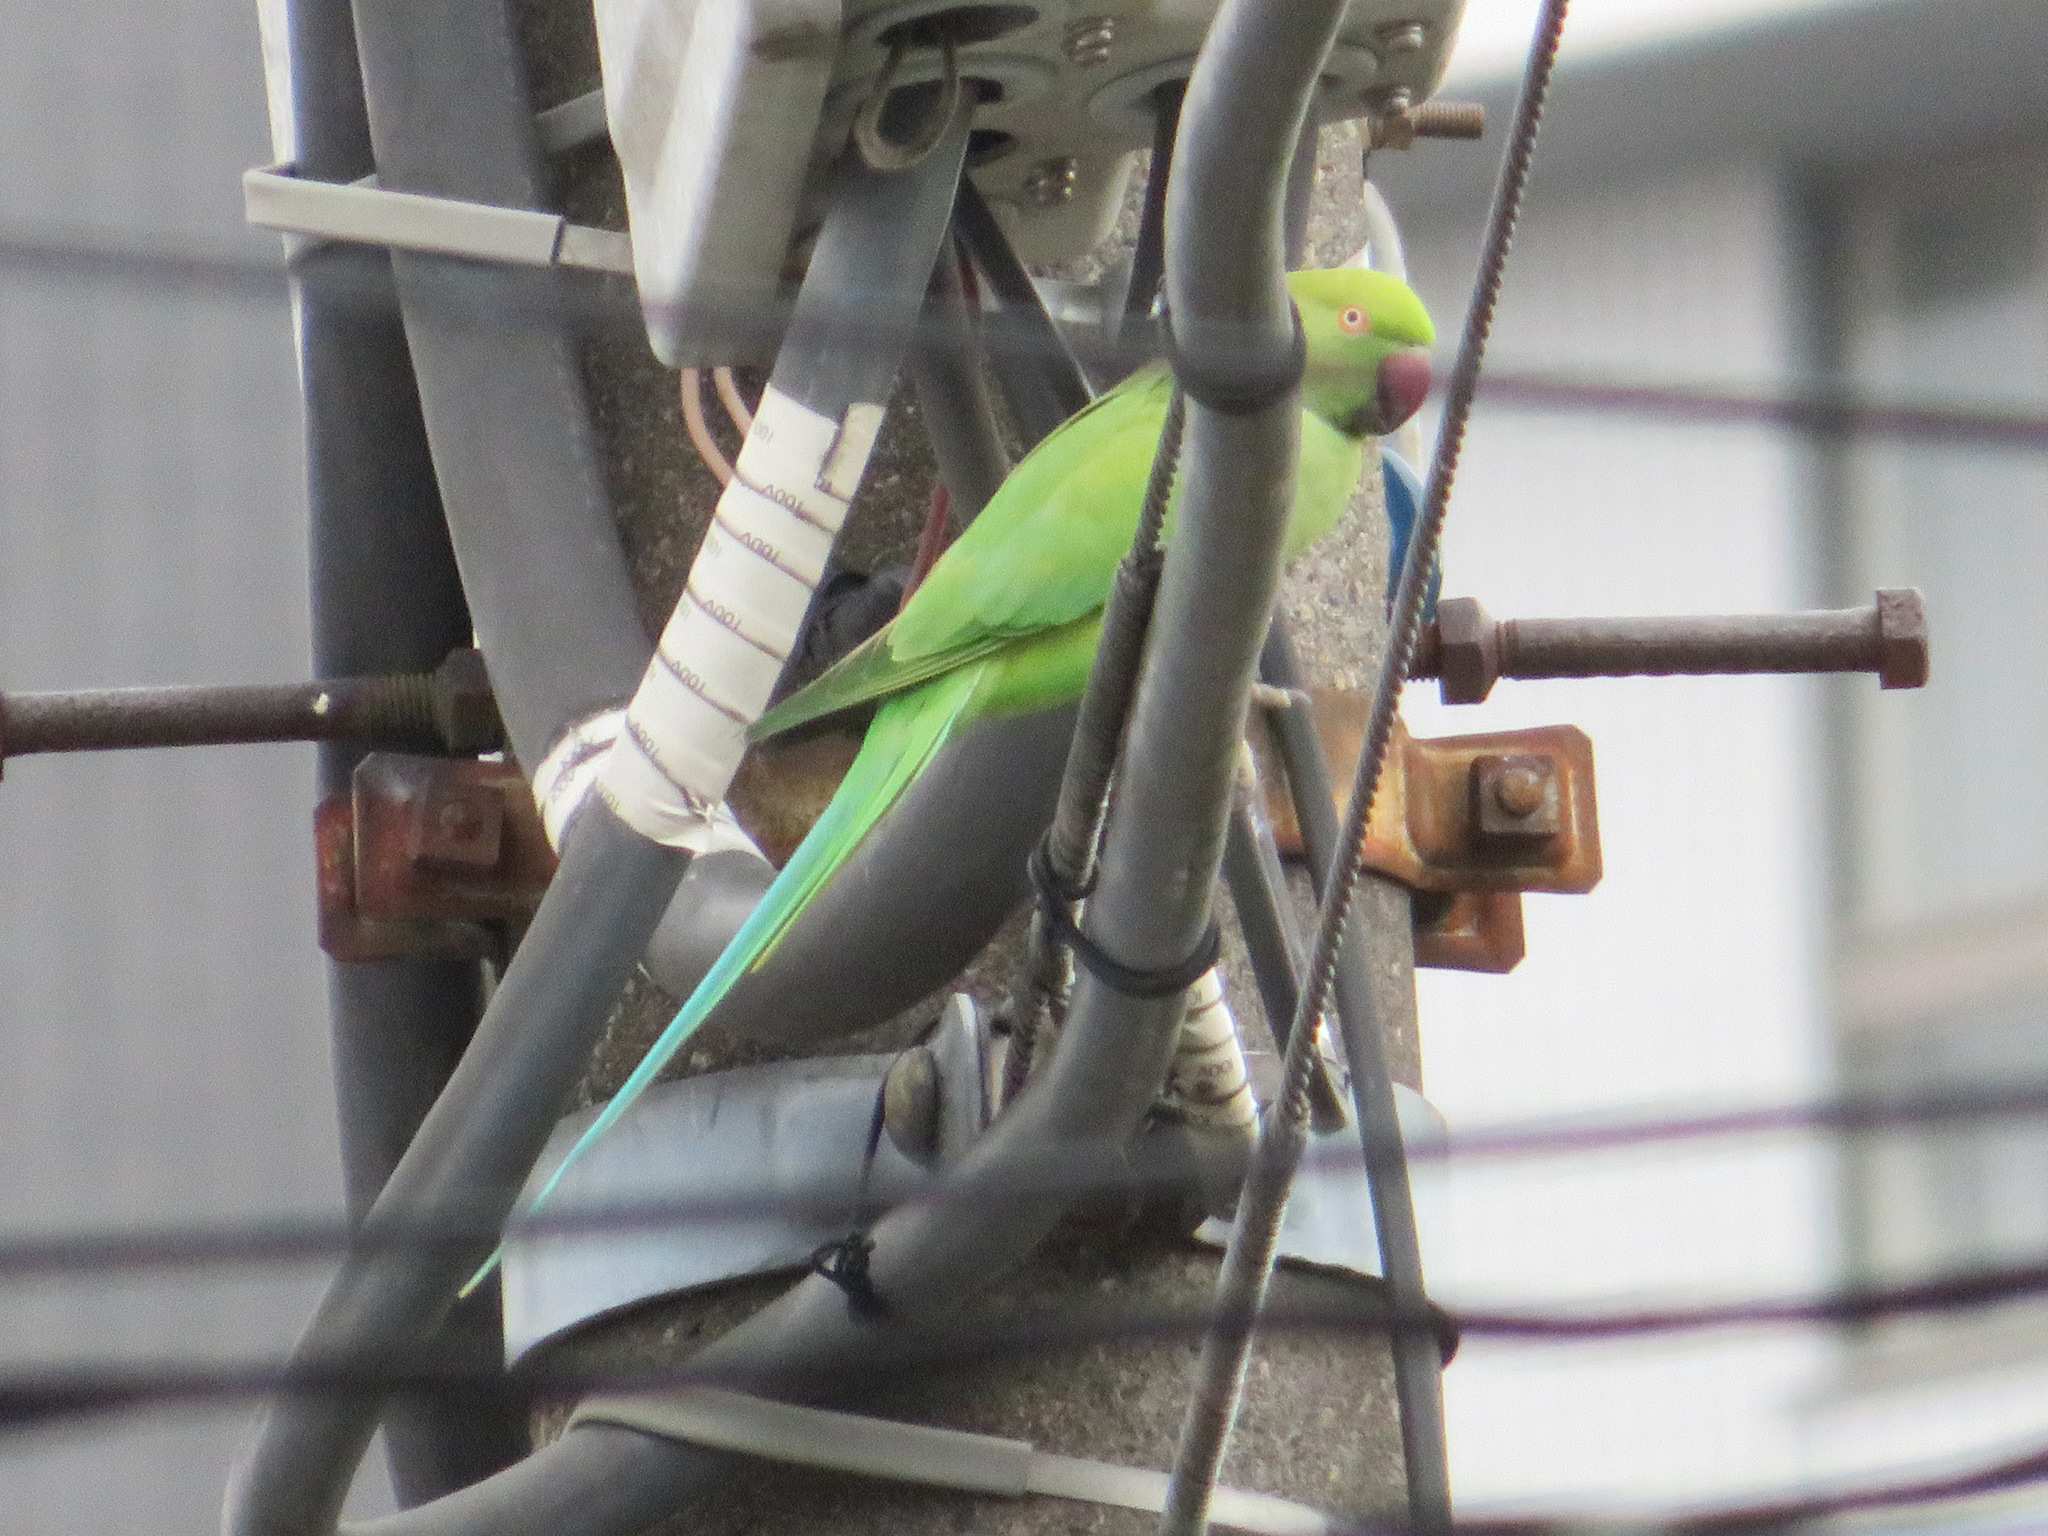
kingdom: Animalia
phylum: Chordata
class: Aves
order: Psittaciformes
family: Psittacidae
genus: Psittacula
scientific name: Psittacula krameri
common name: Rose-ringed parakeet
